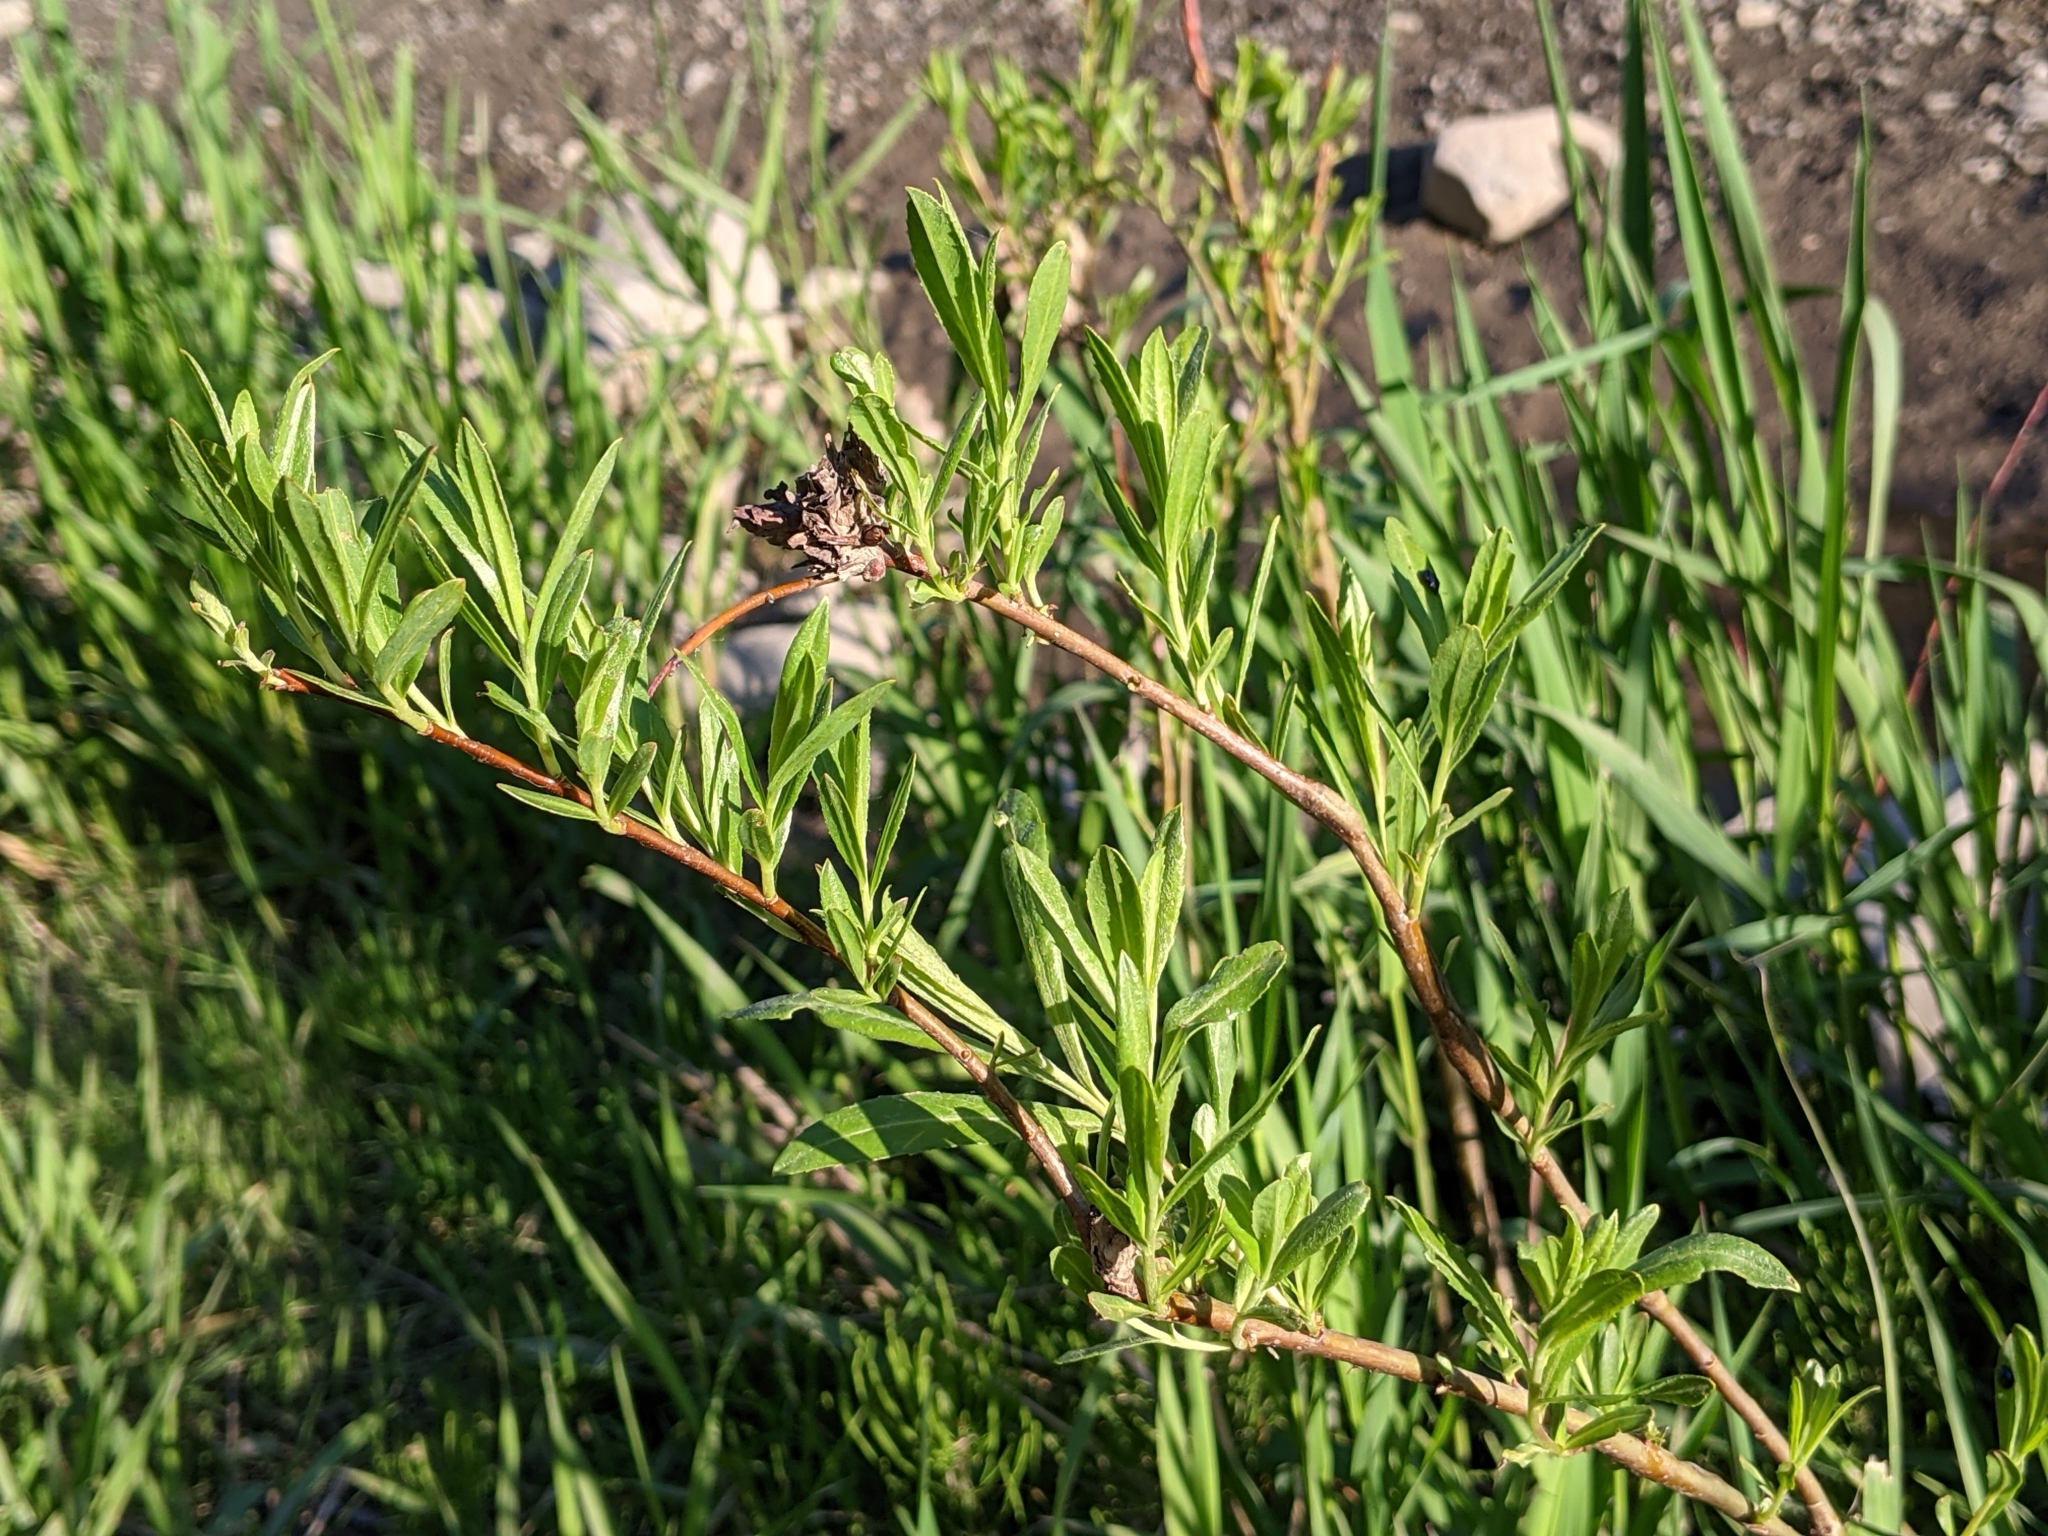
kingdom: Animalia
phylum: Arthropoda
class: Insecta
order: Diptera
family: Cecidomyiidae
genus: Rabdophaga
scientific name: Rabdophaga strobiloides
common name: Willow pinecone gall midge
